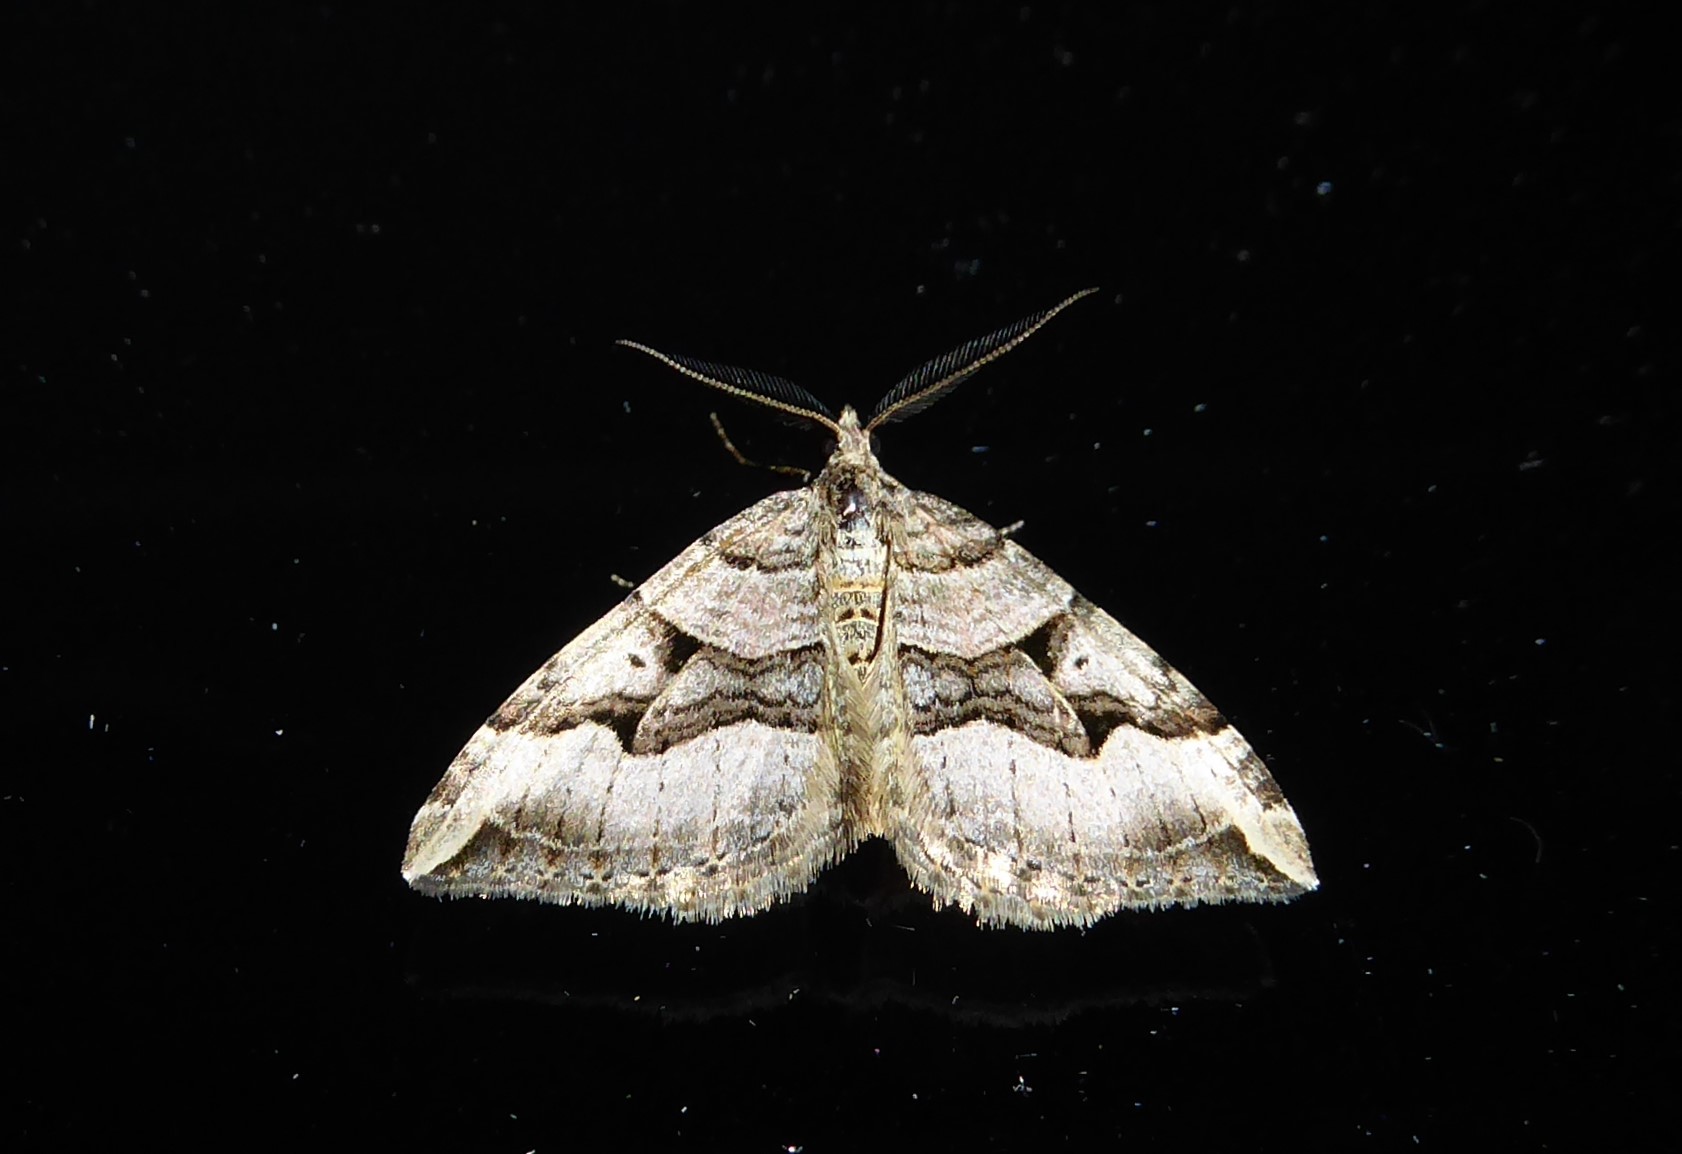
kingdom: Animalia
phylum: Arthropoda
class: Insecta
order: Lepidoptera
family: Geometridae
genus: Xanthorhoe
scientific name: Xanthorhoe semifissata
